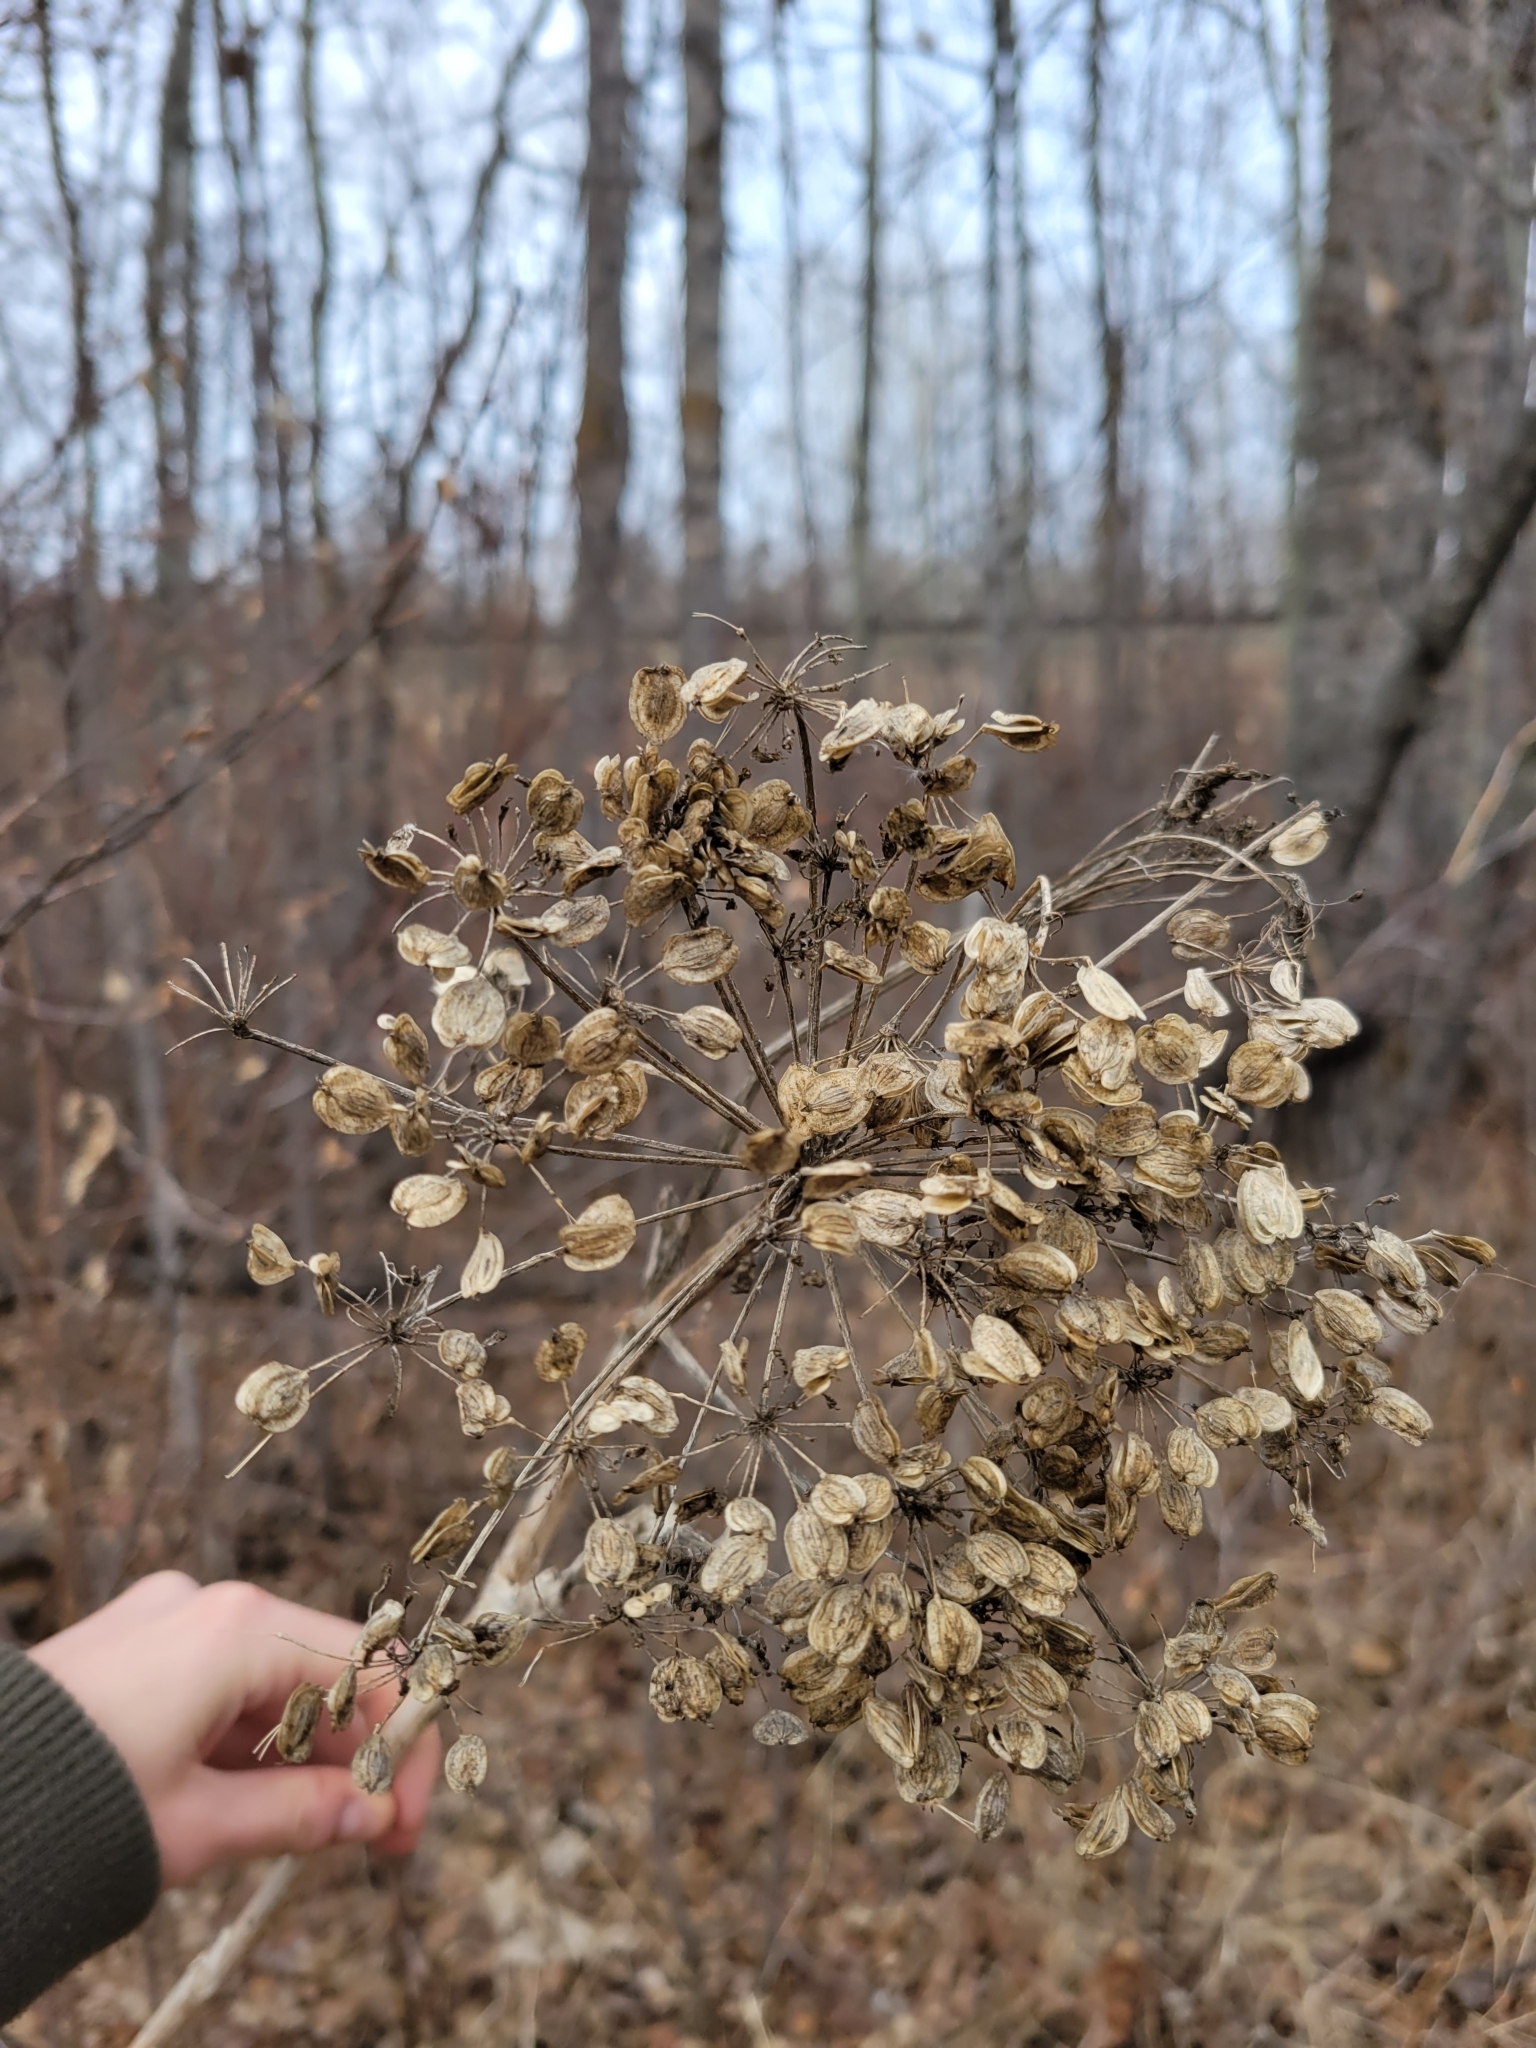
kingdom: Plantae
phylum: Tracheophyta
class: Magnoliopsida
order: Apiales
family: Apiaceae
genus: Heracleum
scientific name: Heracleum maximum
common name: American cow parsnip
